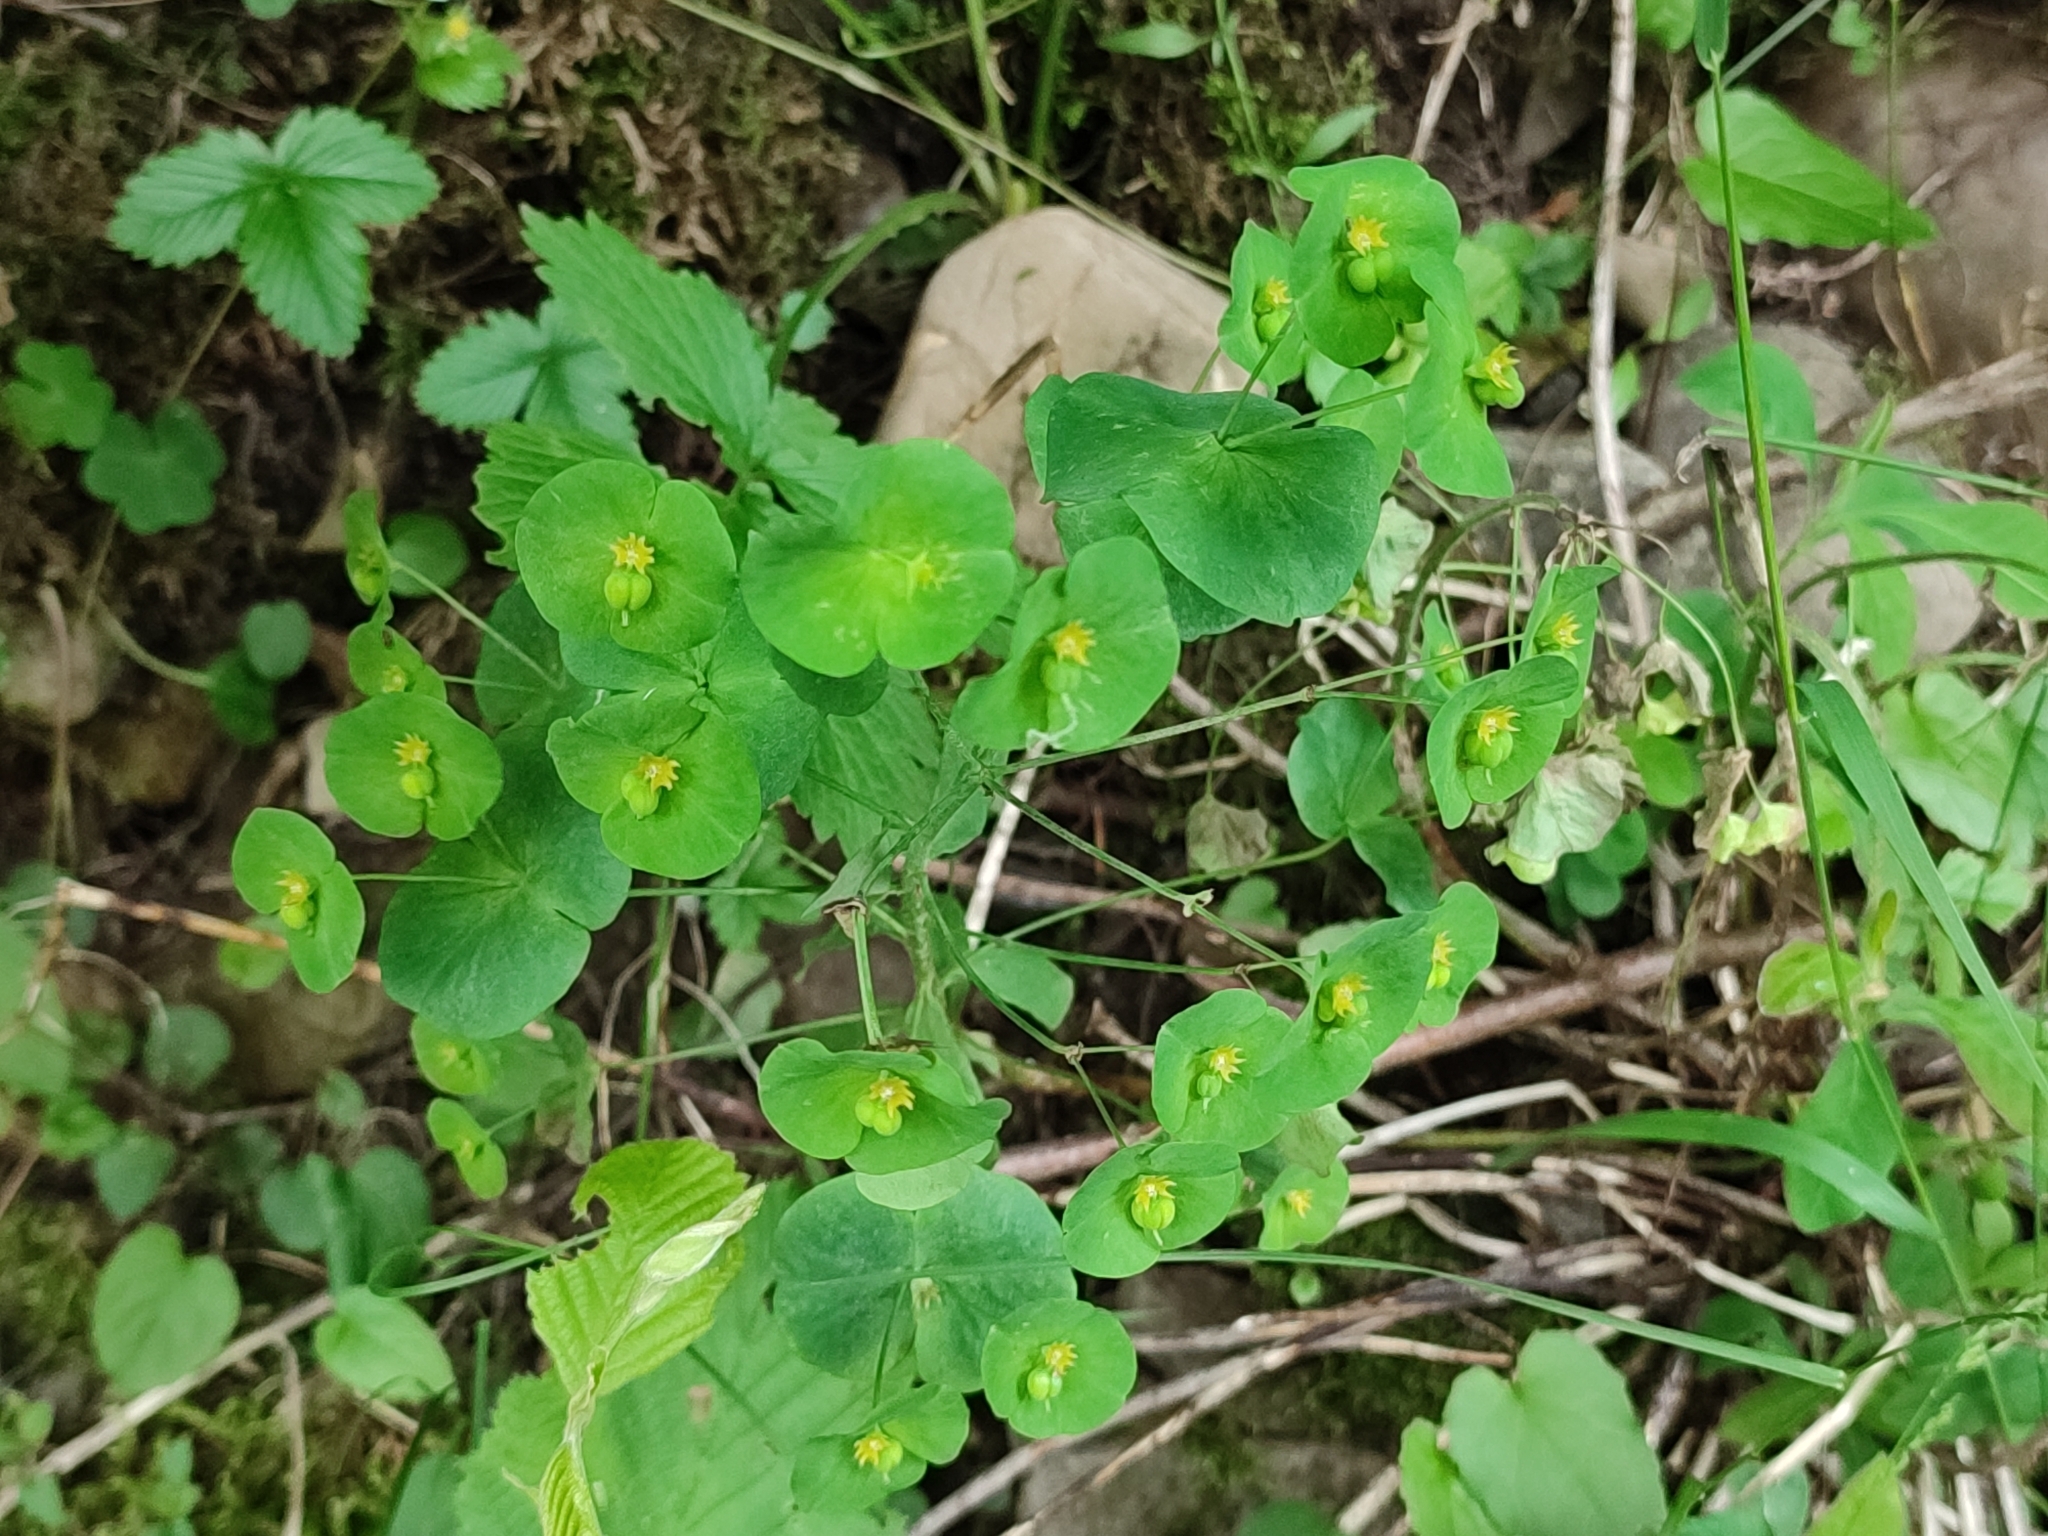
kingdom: Plantae
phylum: Tracheophyta
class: Magnoliopsida
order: Malpighiales
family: Euphorbiaceae
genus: Euphorbia
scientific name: Euphorbia amygdaloides
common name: Wood spurge
